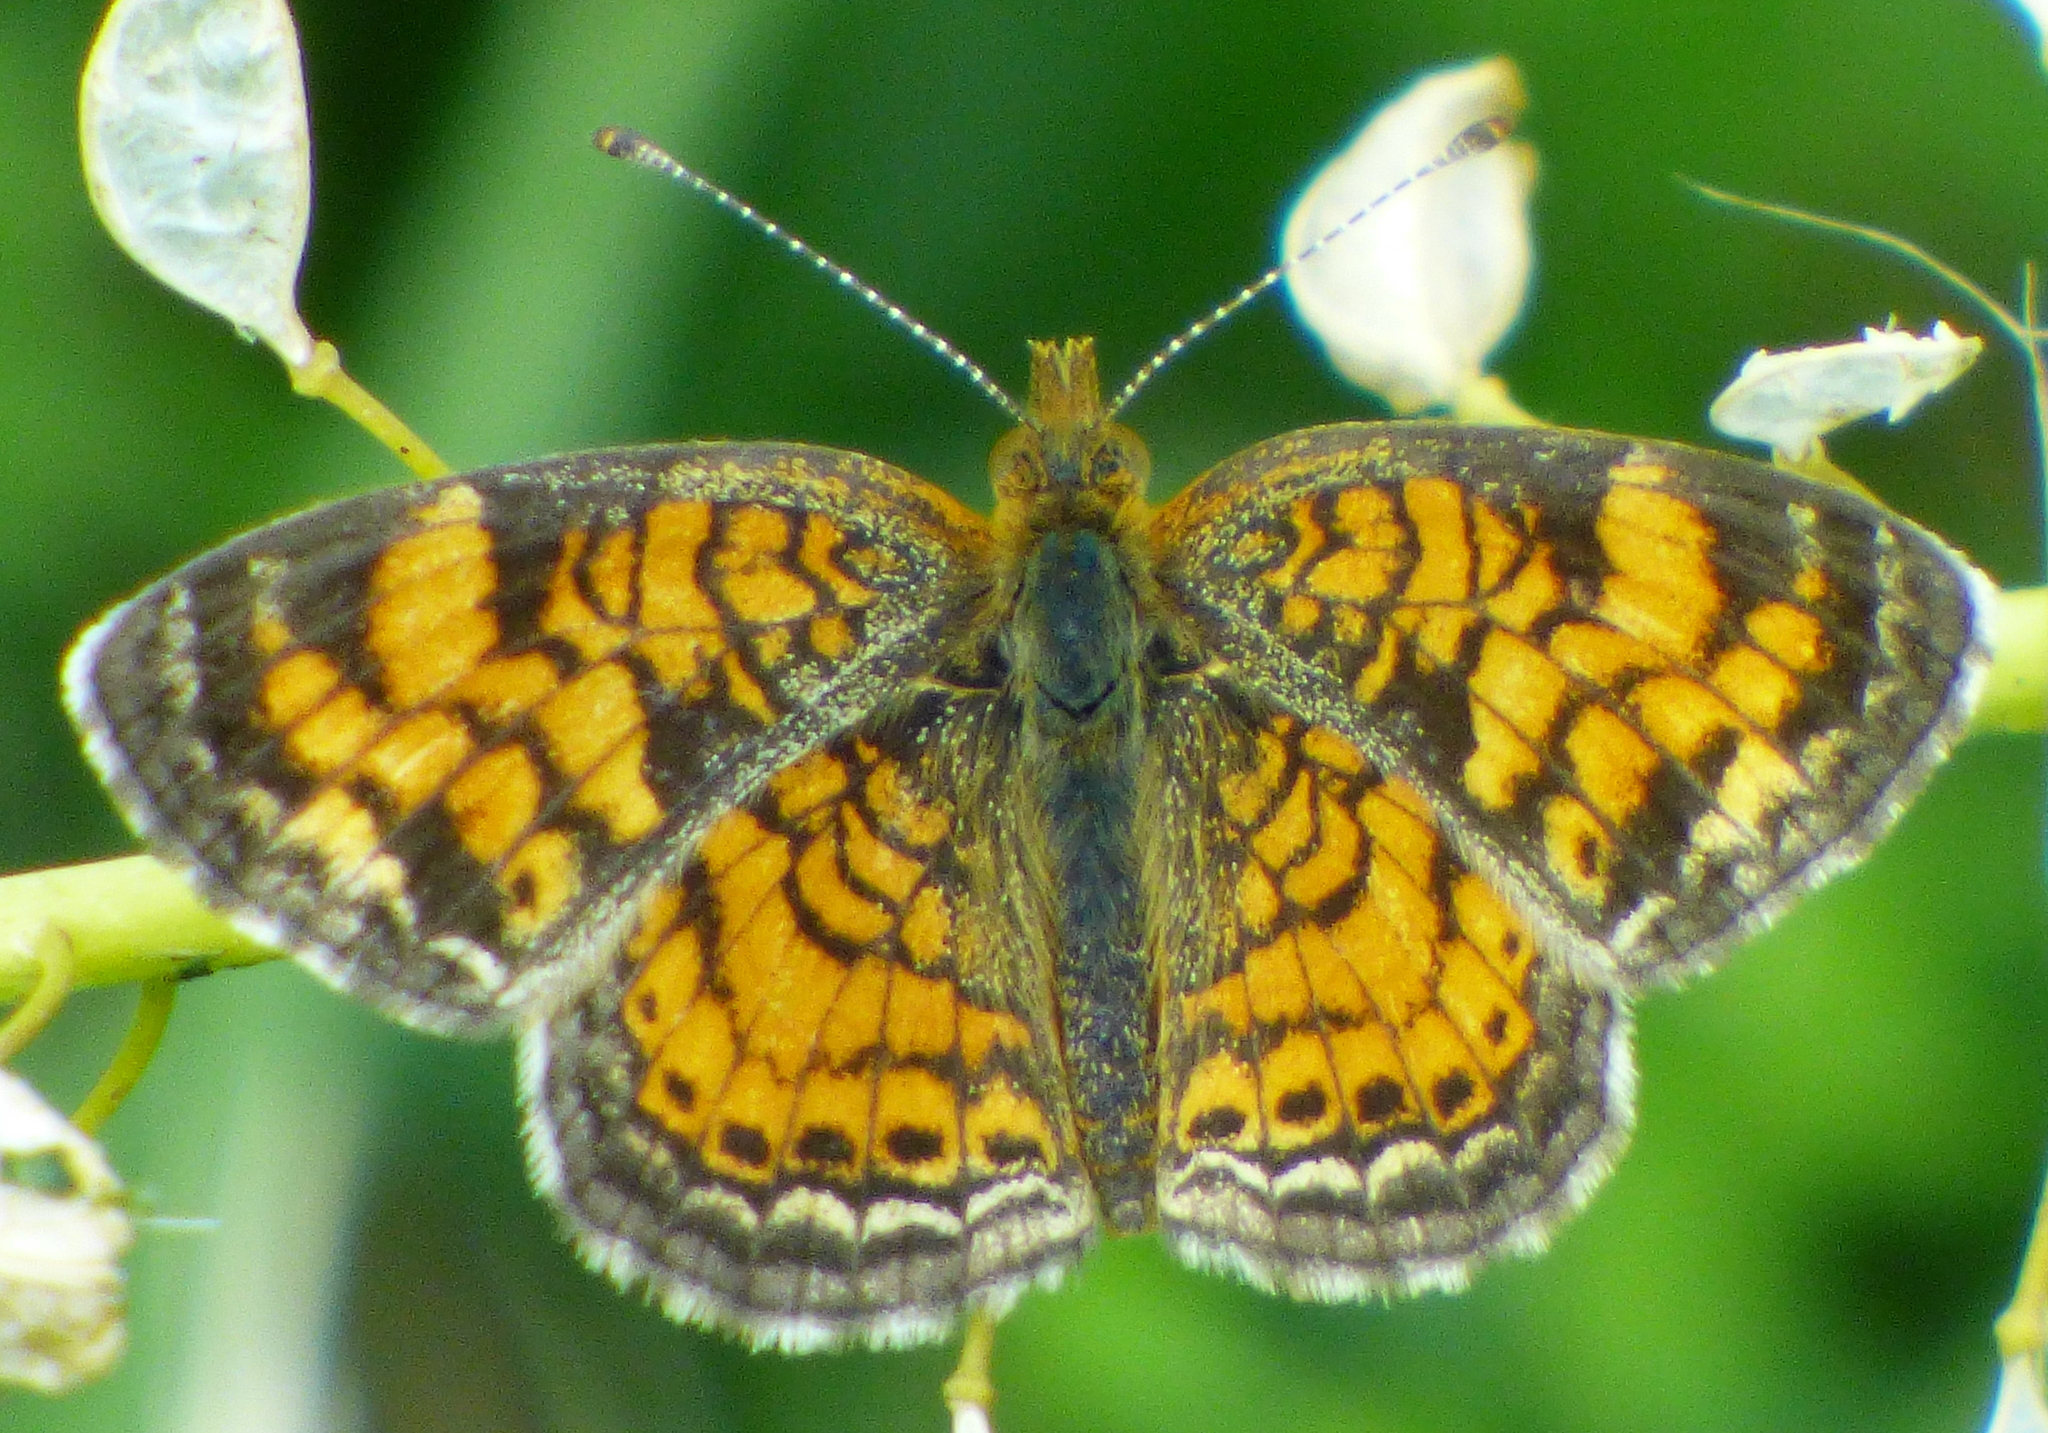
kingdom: Animalia
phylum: Arthropoda
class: Insecta
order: Lepidoptera
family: Nymphalidae
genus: Phyciodes
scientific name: Phyciodes tharos
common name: Pearl crescent
